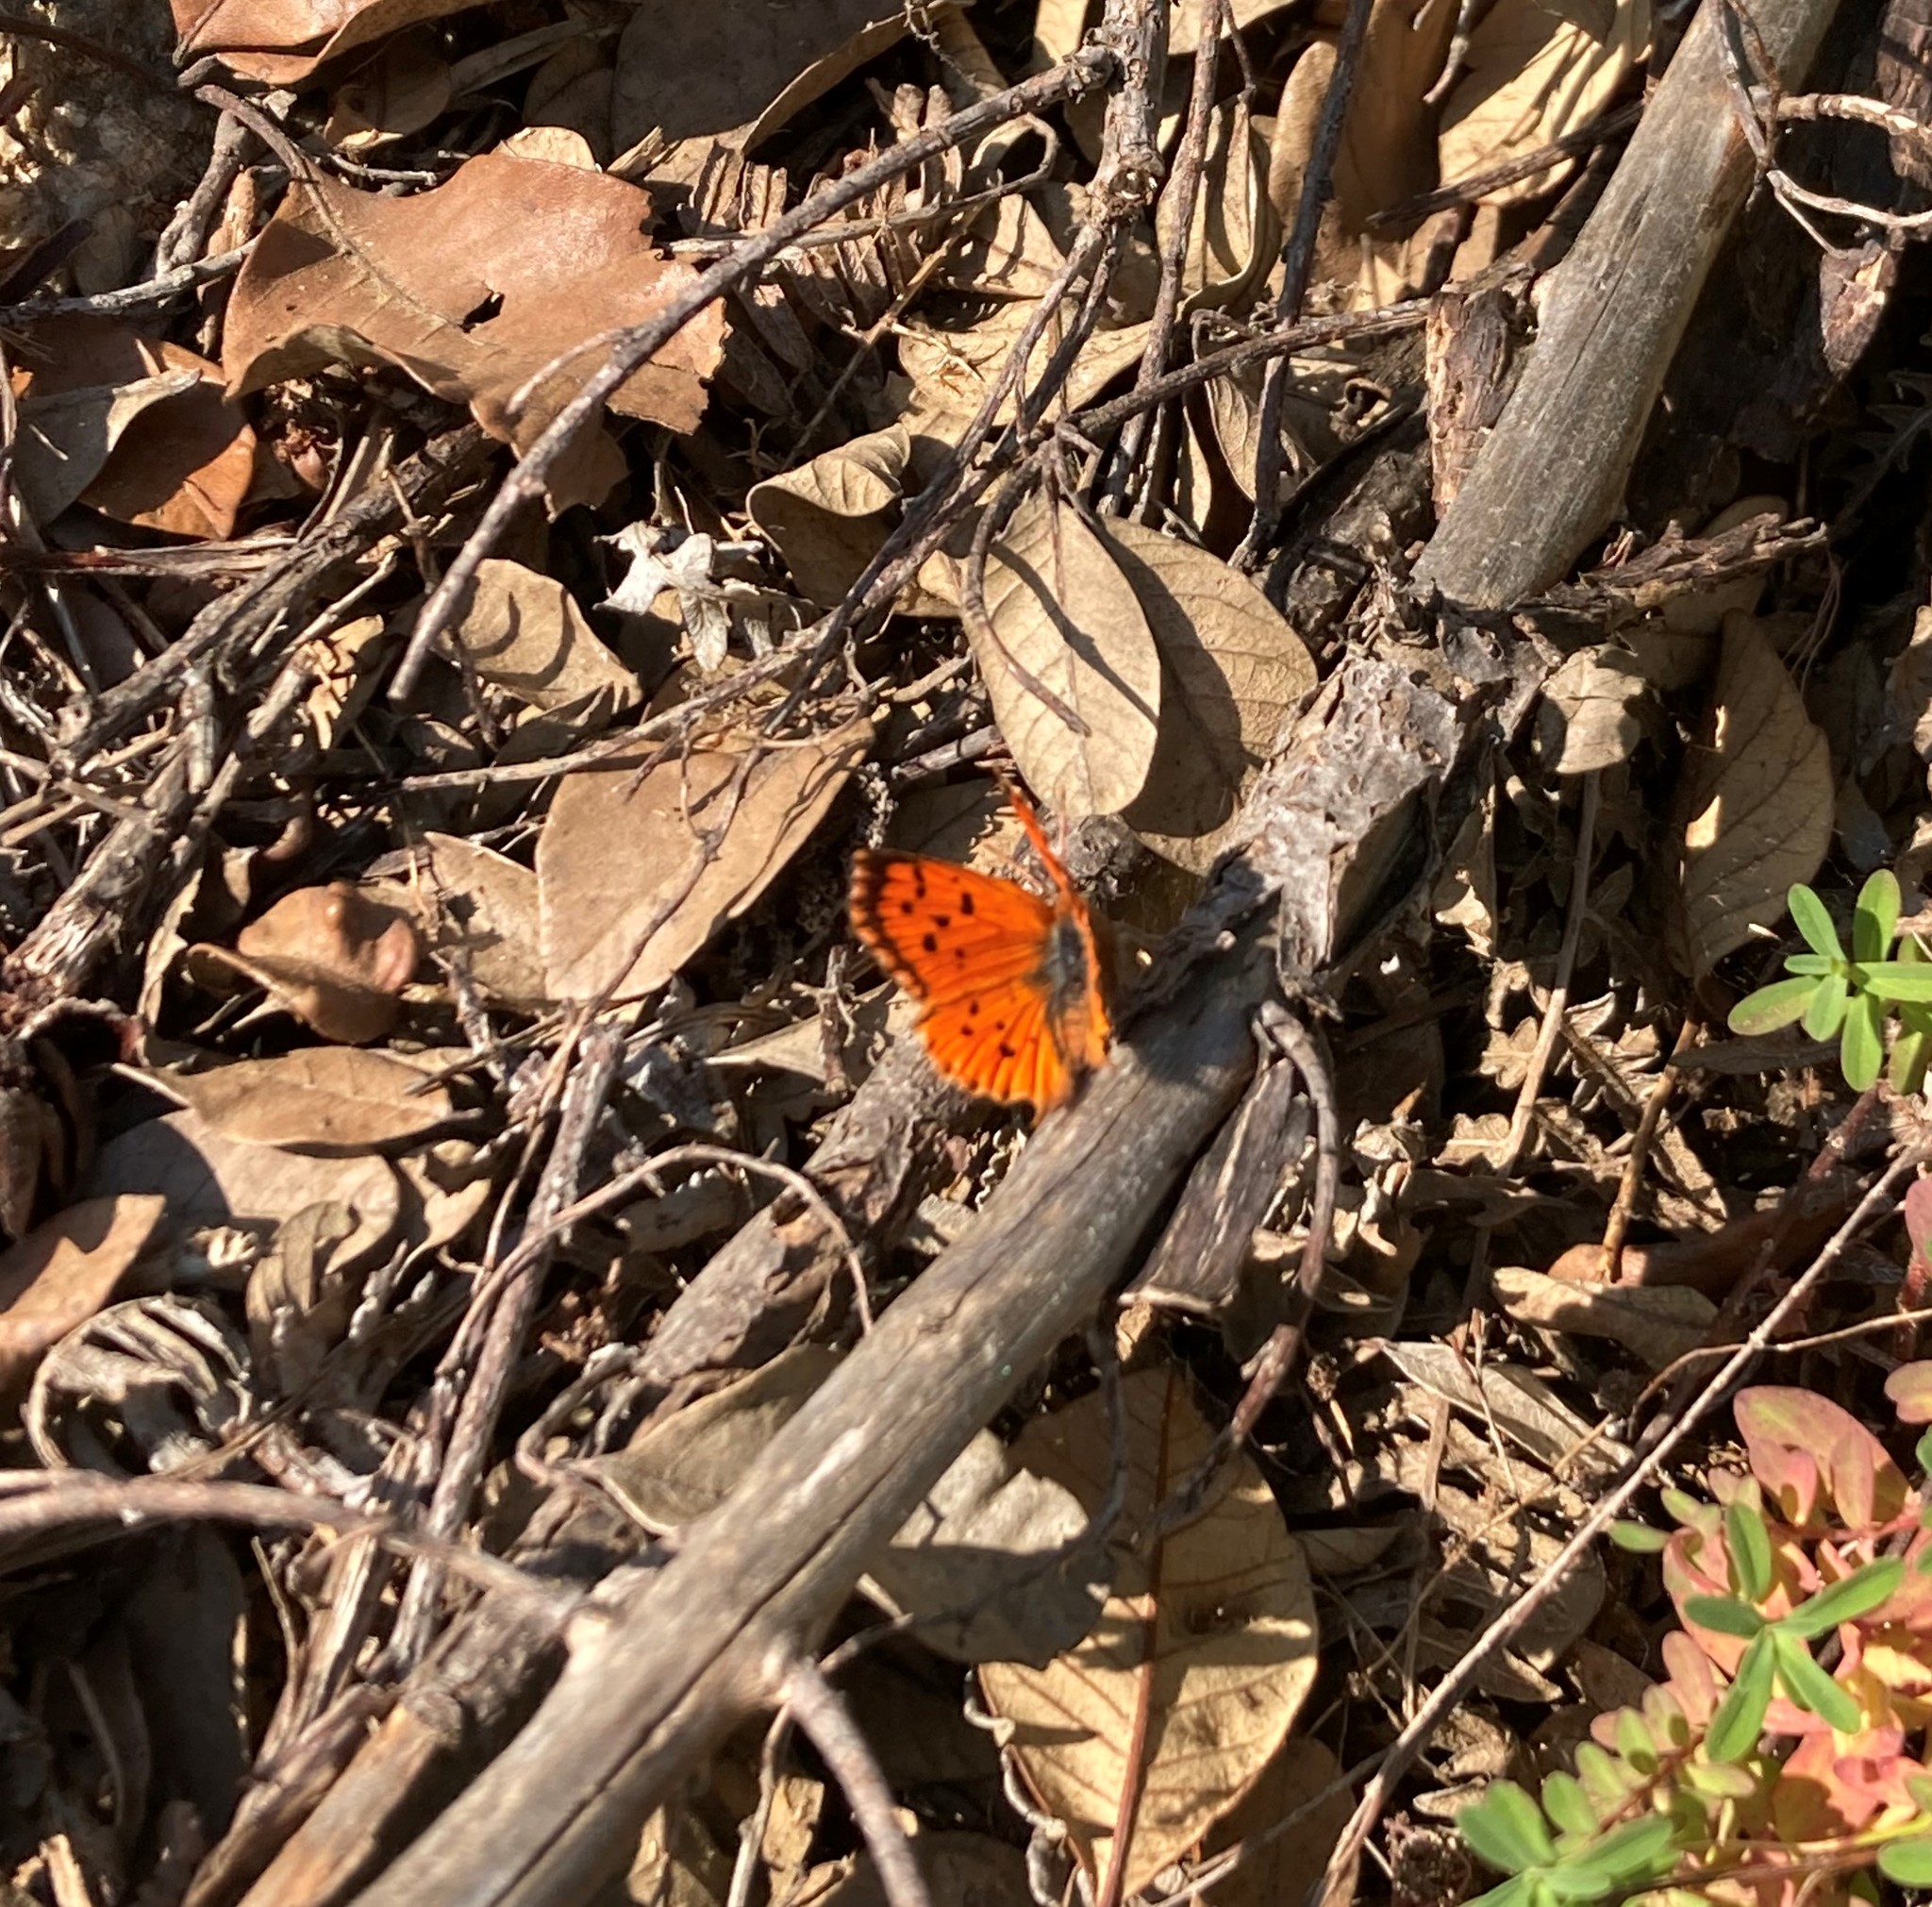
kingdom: Animalia
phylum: Arthropoda
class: Insecta
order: Lepidoptera
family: Lycaenidae
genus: Chrysoritis
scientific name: Chrysoritis
